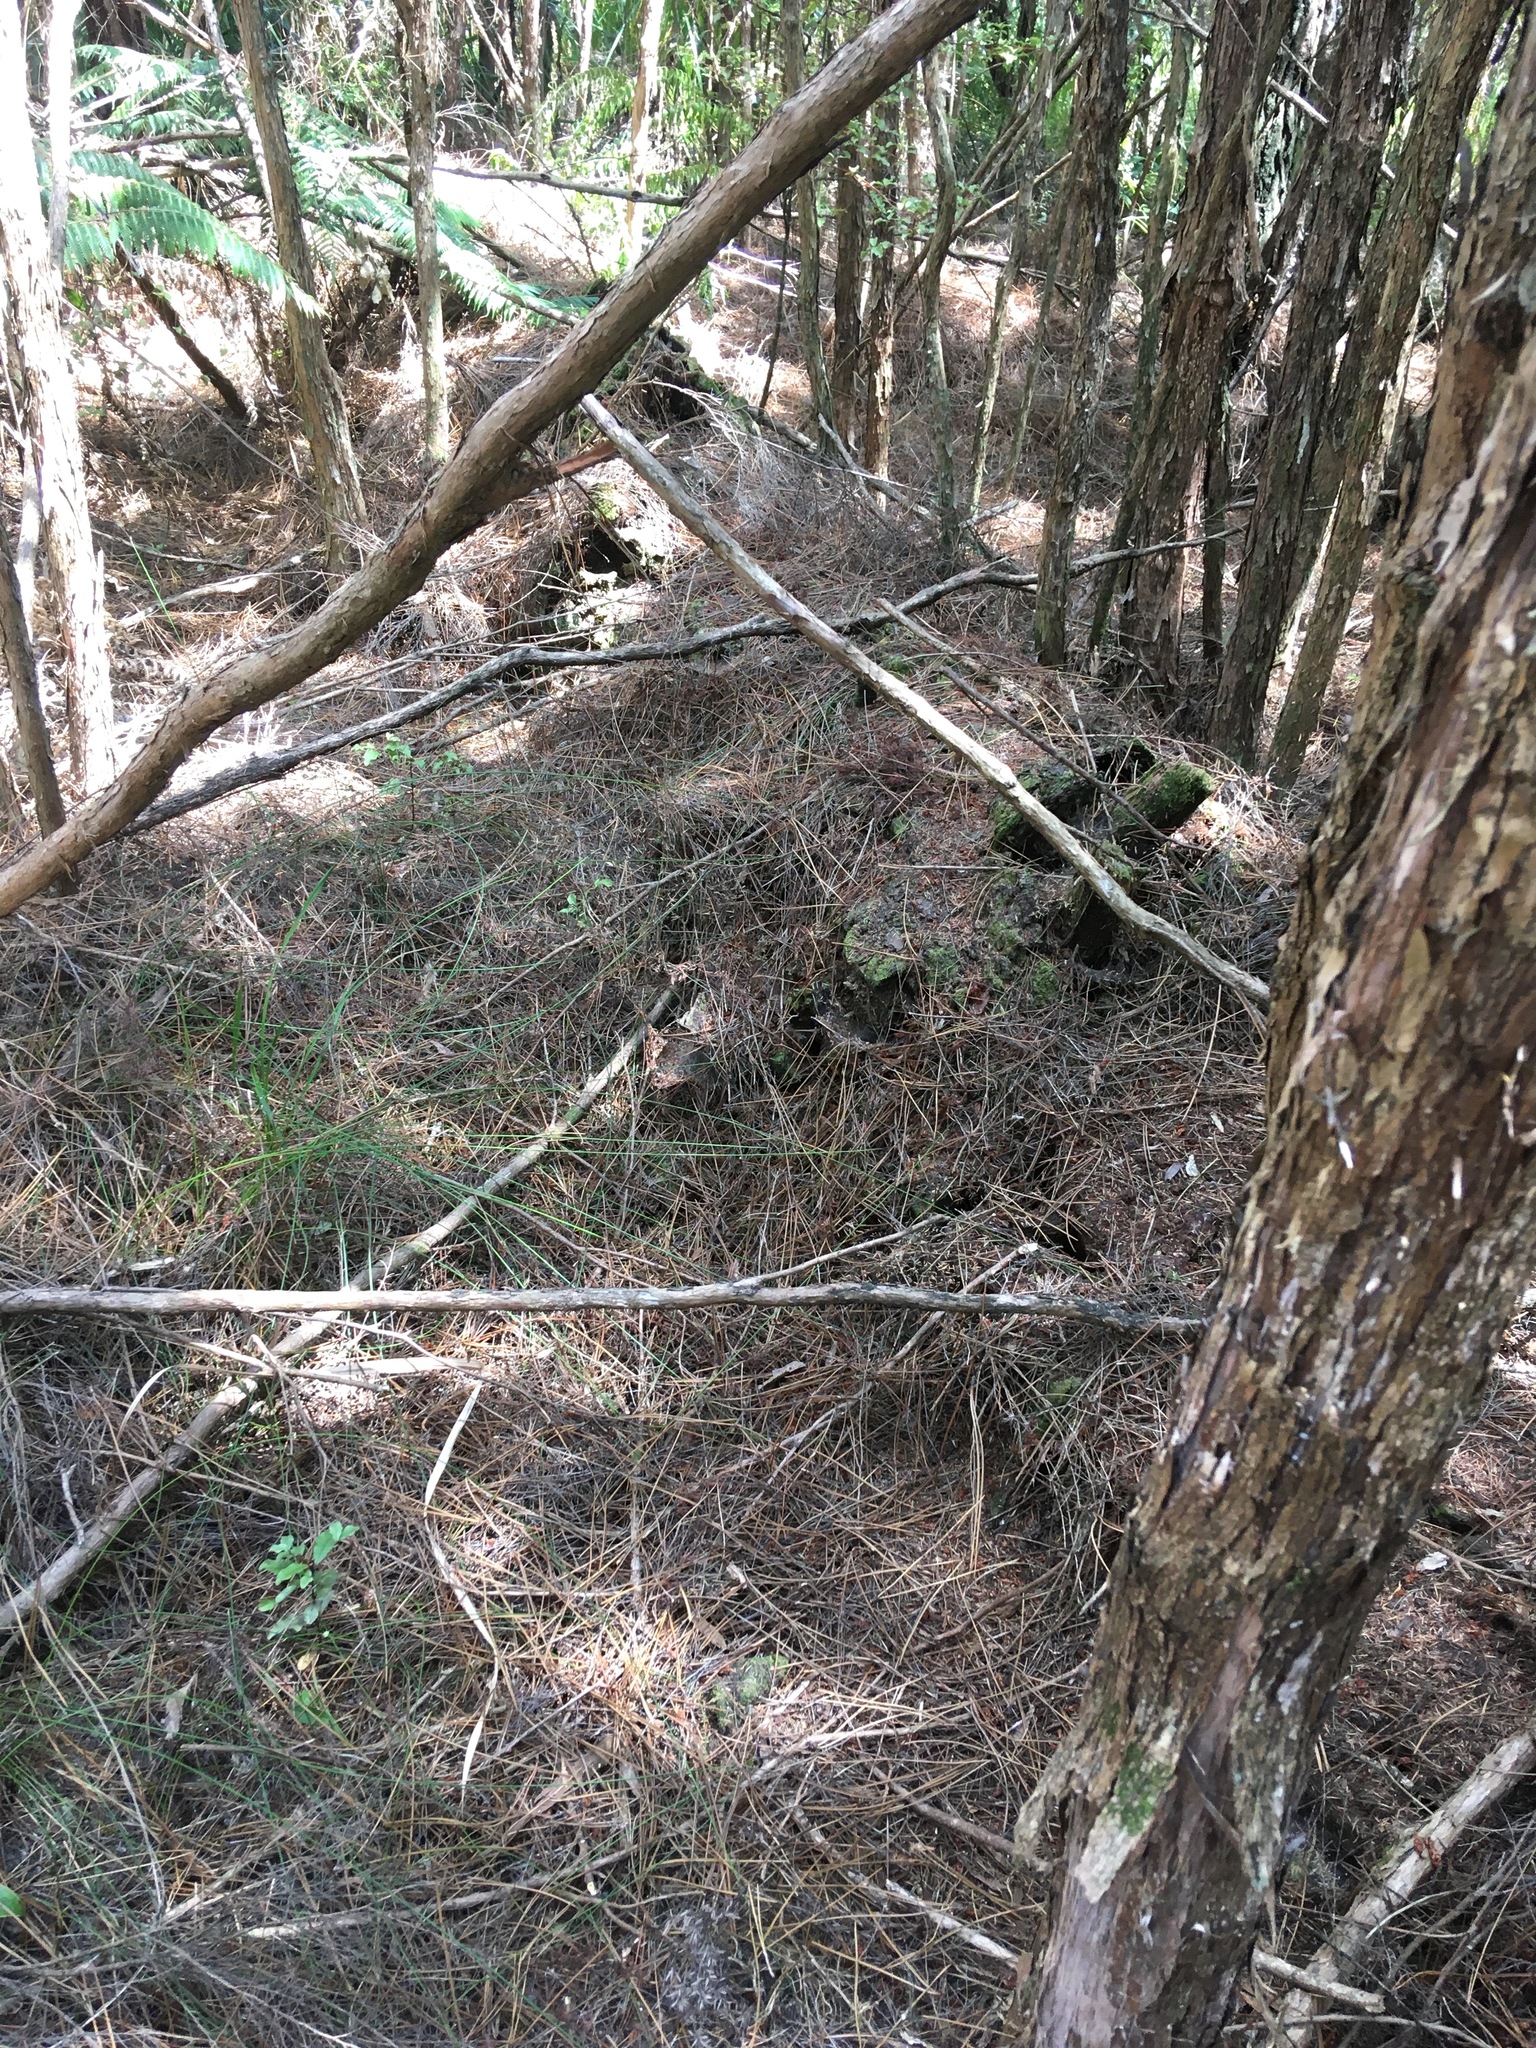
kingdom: Plantae
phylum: Tracheophyta
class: Liliopsida
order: Poales
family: Cyperaceae
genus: Schoenus
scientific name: Schoenus tendo
